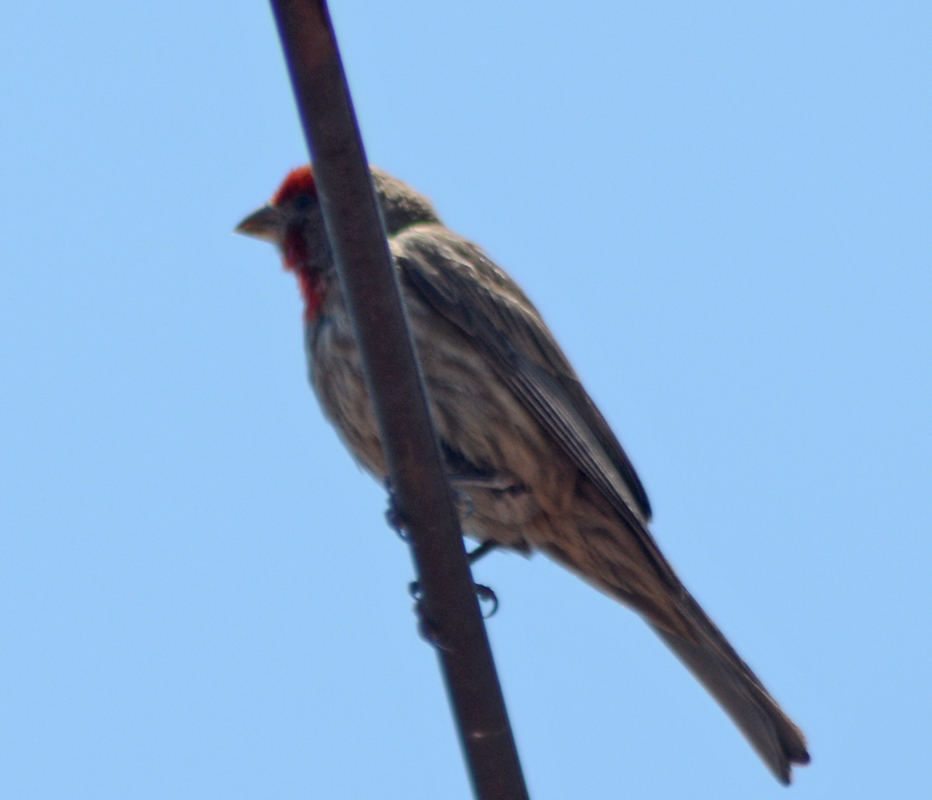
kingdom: Animalia
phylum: Chordata
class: Aves
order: Passeriformes
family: Fringillidae
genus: Haemorhous
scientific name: Haemorhous mexicanus
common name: House finch
